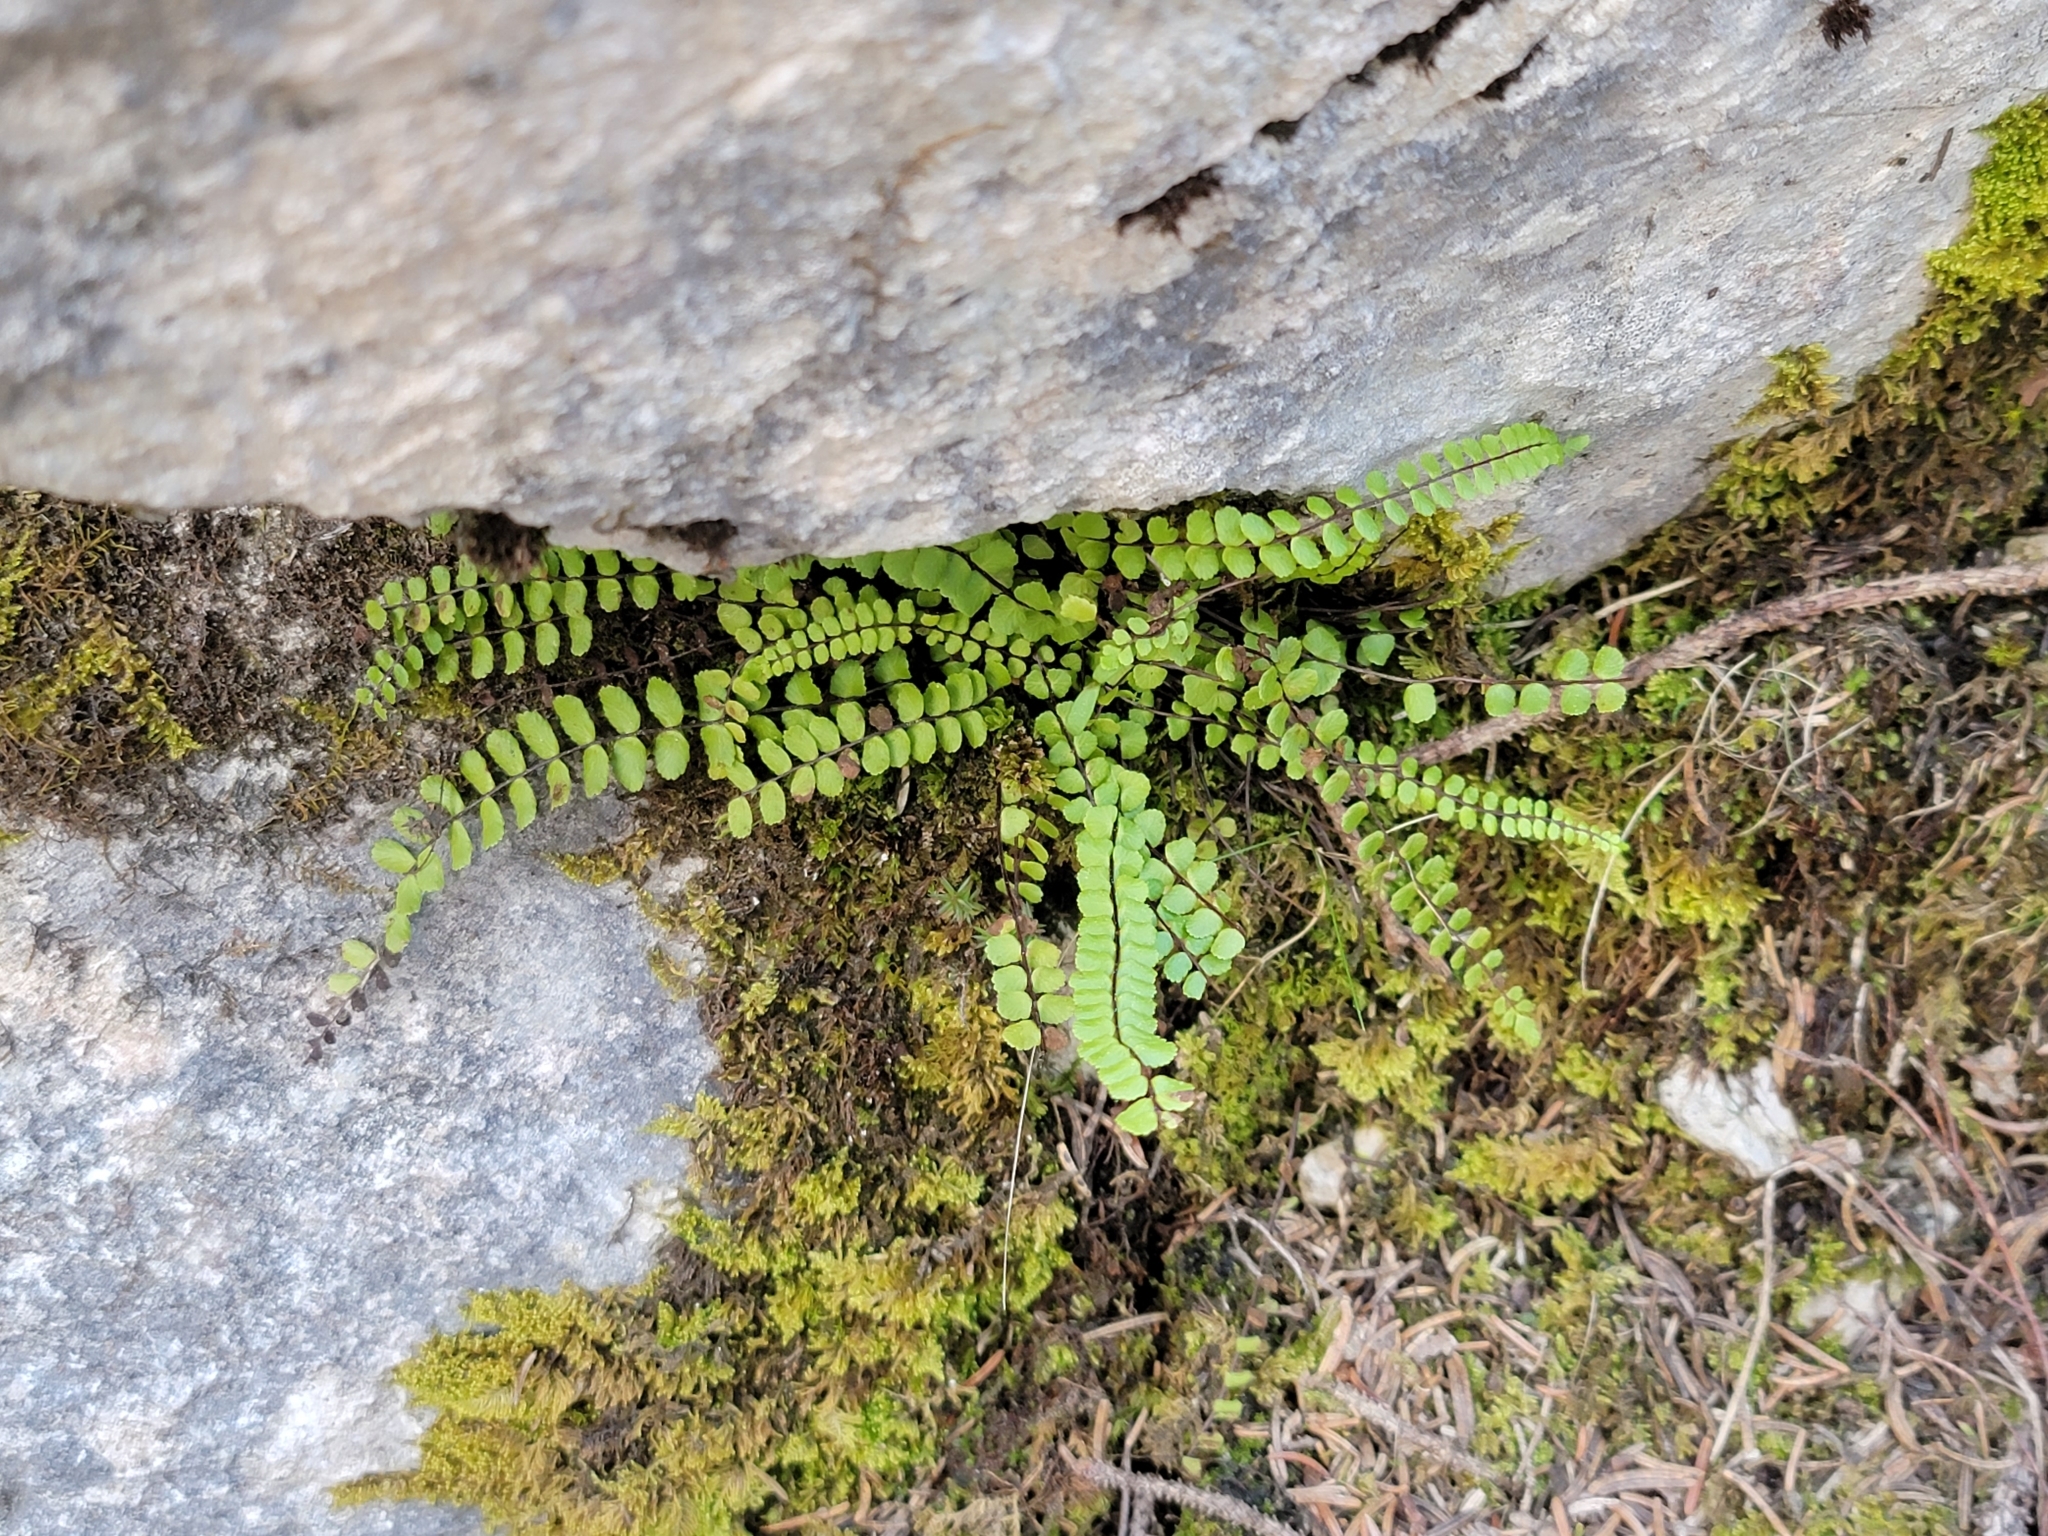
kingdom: Plantae
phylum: Tracheophyta
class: Polypodiopsida
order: Polypodiales
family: Aspleniaceae
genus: Asplenium
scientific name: Asplenium trichomanes
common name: Maidenhair spleenwort
